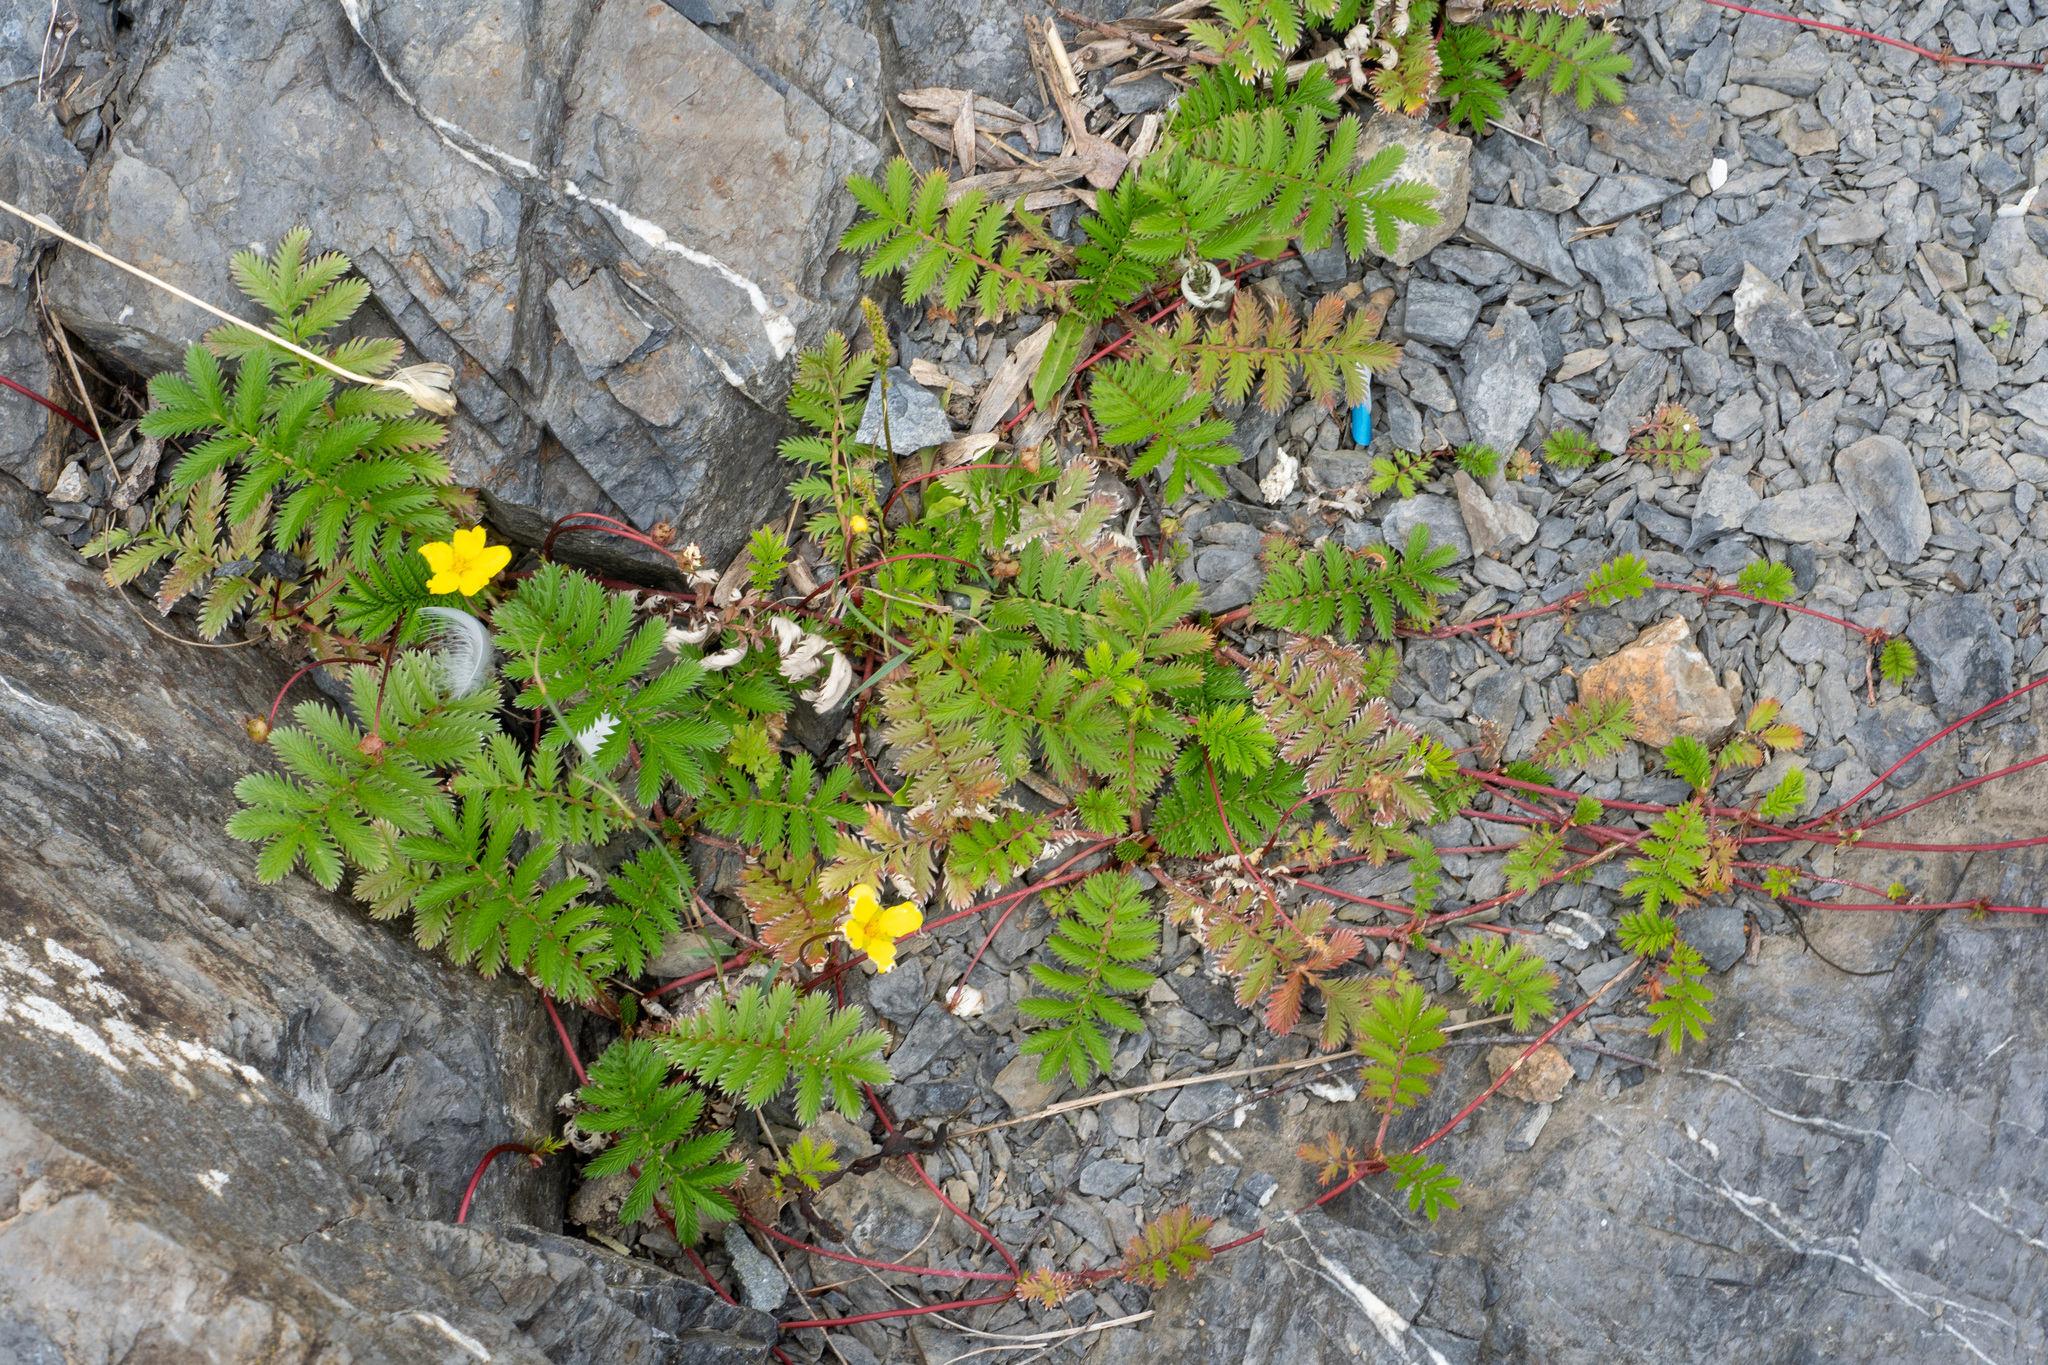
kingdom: Plantae
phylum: Tracheophyta
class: Magnoliopsida
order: Rosales
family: Rosaceae
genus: Argentina
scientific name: Argentina anserina
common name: Common silverweed
